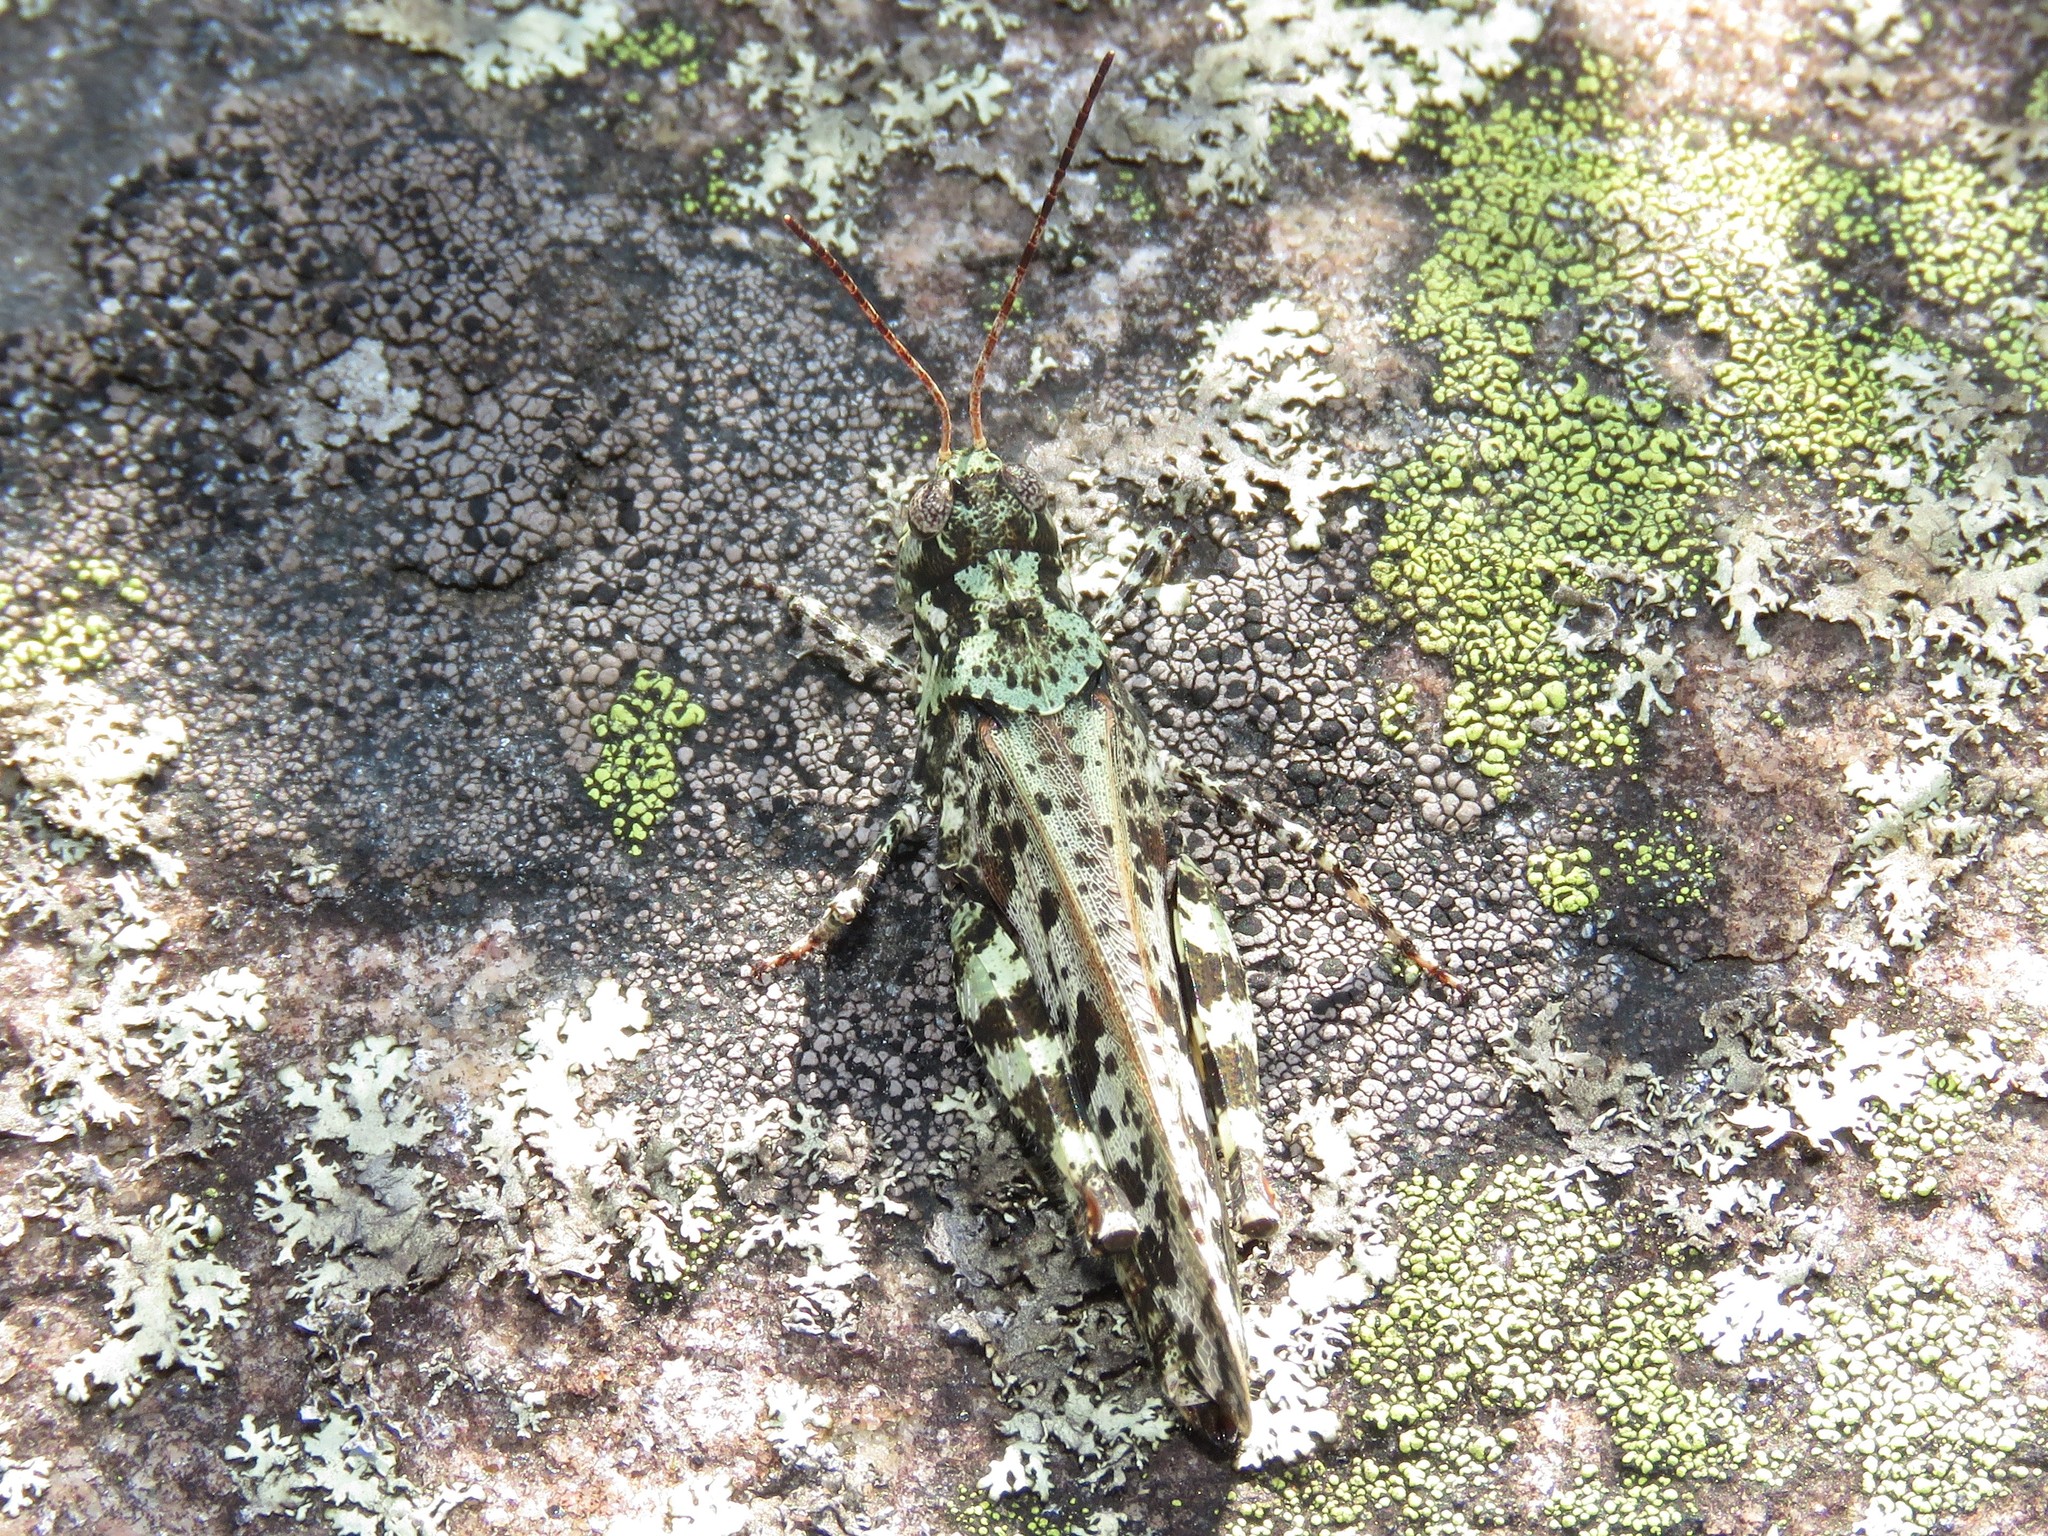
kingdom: Animalia
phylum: Arthropoda
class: Insecta
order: Orthoptera
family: Acrididae
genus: Spharagemon
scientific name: Spharagemon marmoratum
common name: Marbled grasshopper
